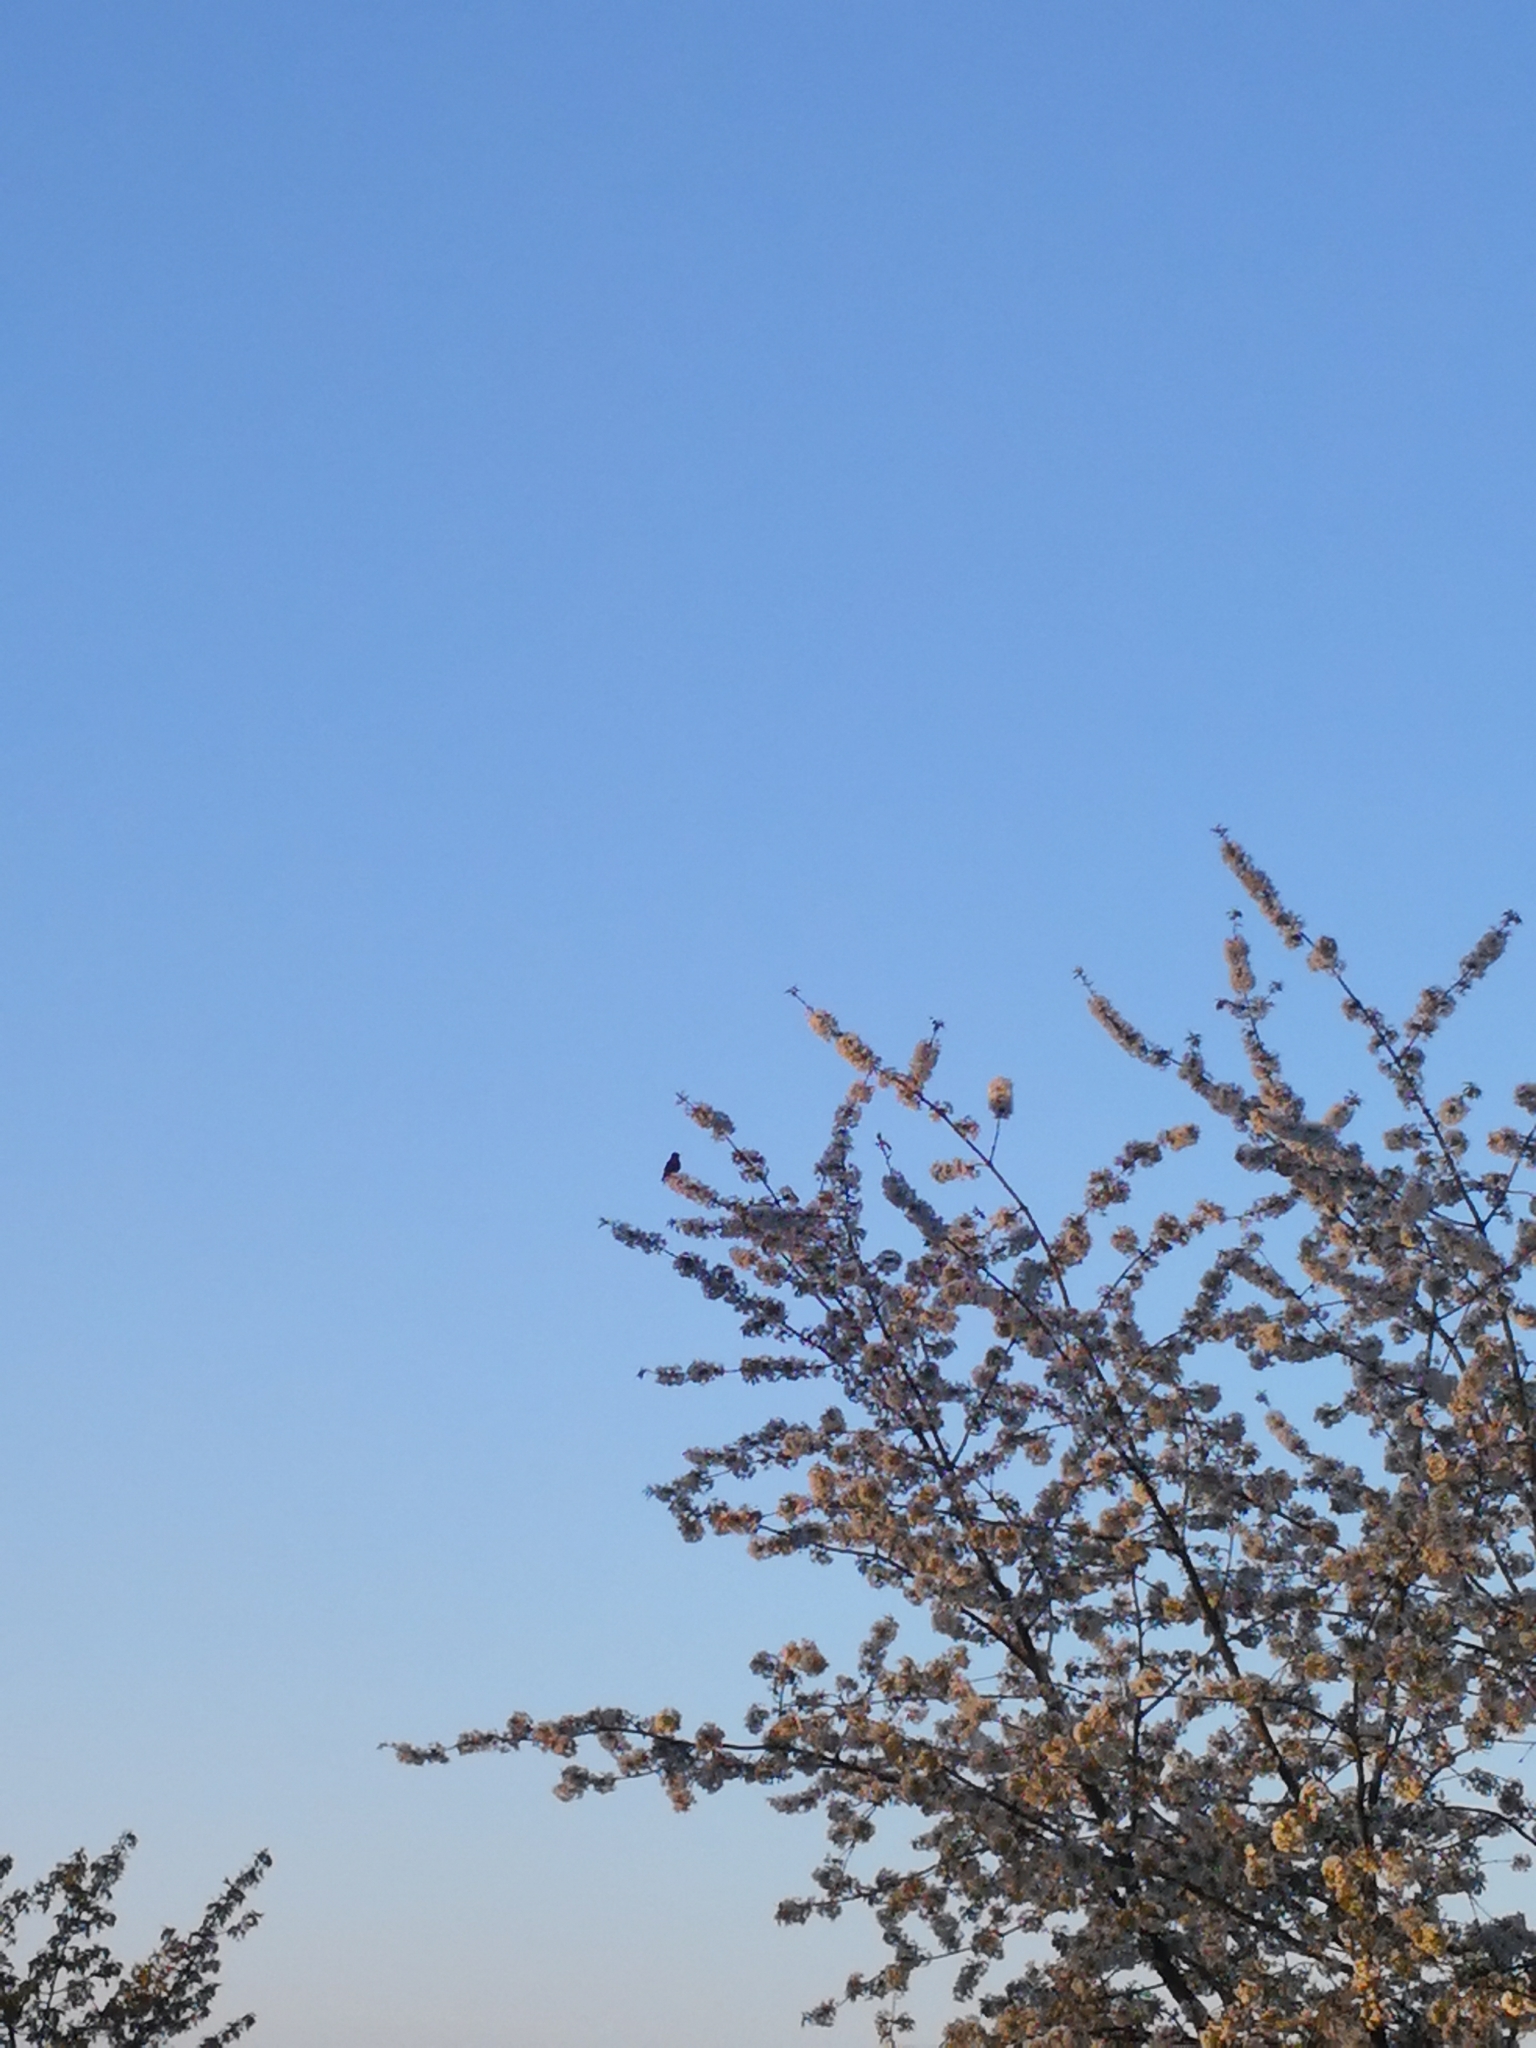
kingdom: Animalia
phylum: Chordata
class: Aves
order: Passeriformes
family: Turdidae
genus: Turdus
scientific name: Turdus philomelos
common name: Song thrush
